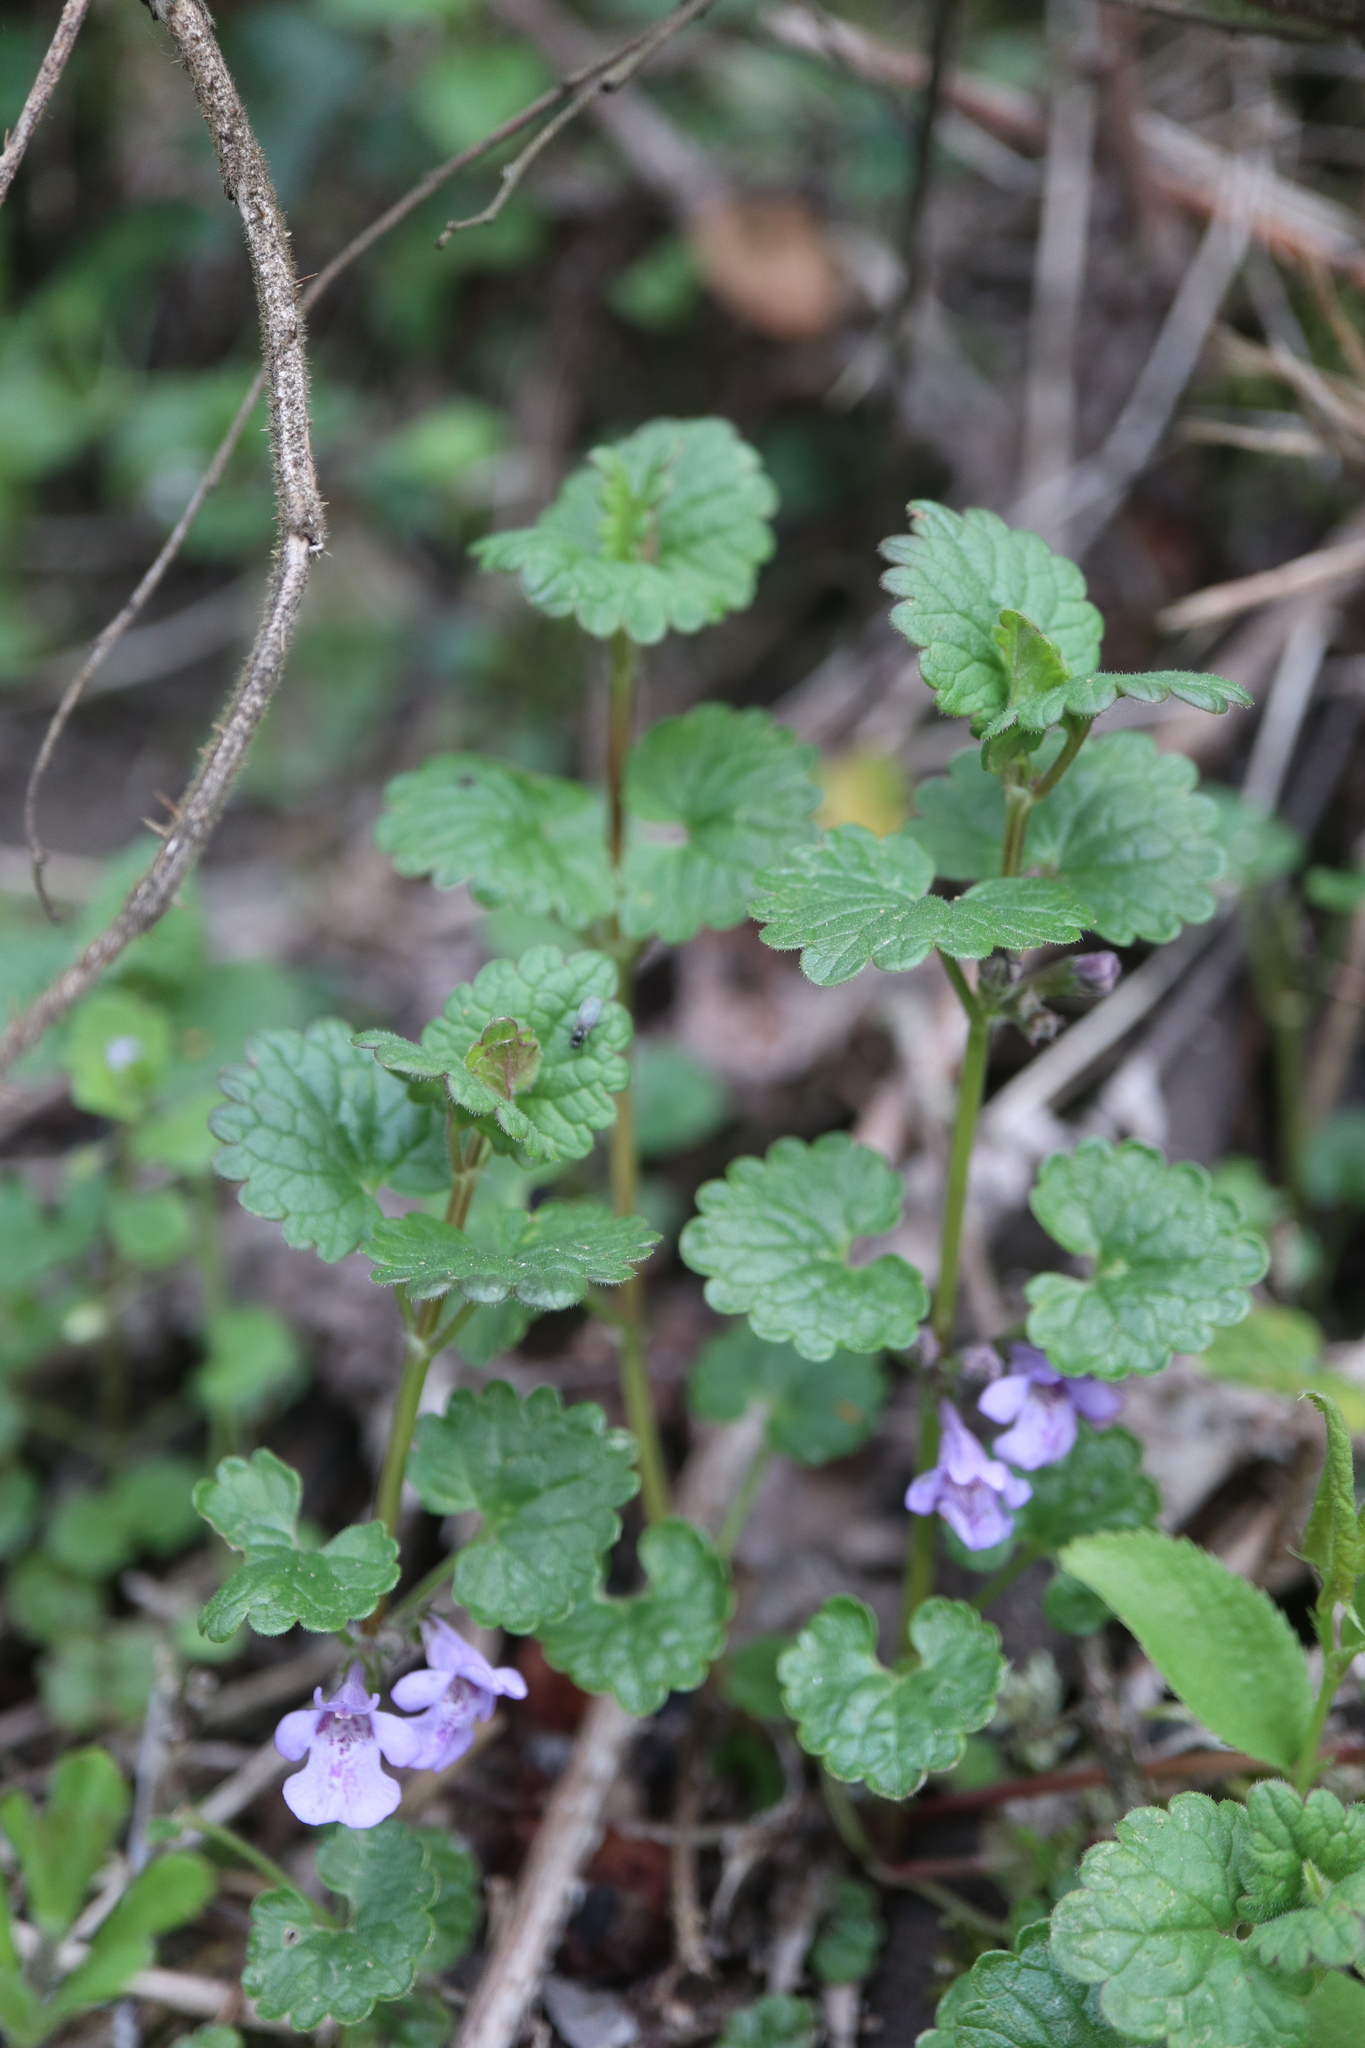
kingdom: Plantae
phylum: Tracheophyta
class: Magnoliopsida
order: Lamiales
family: Lamiaceae
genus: Glechoma
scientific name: Glechoma hederacea
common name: Ground ivy
